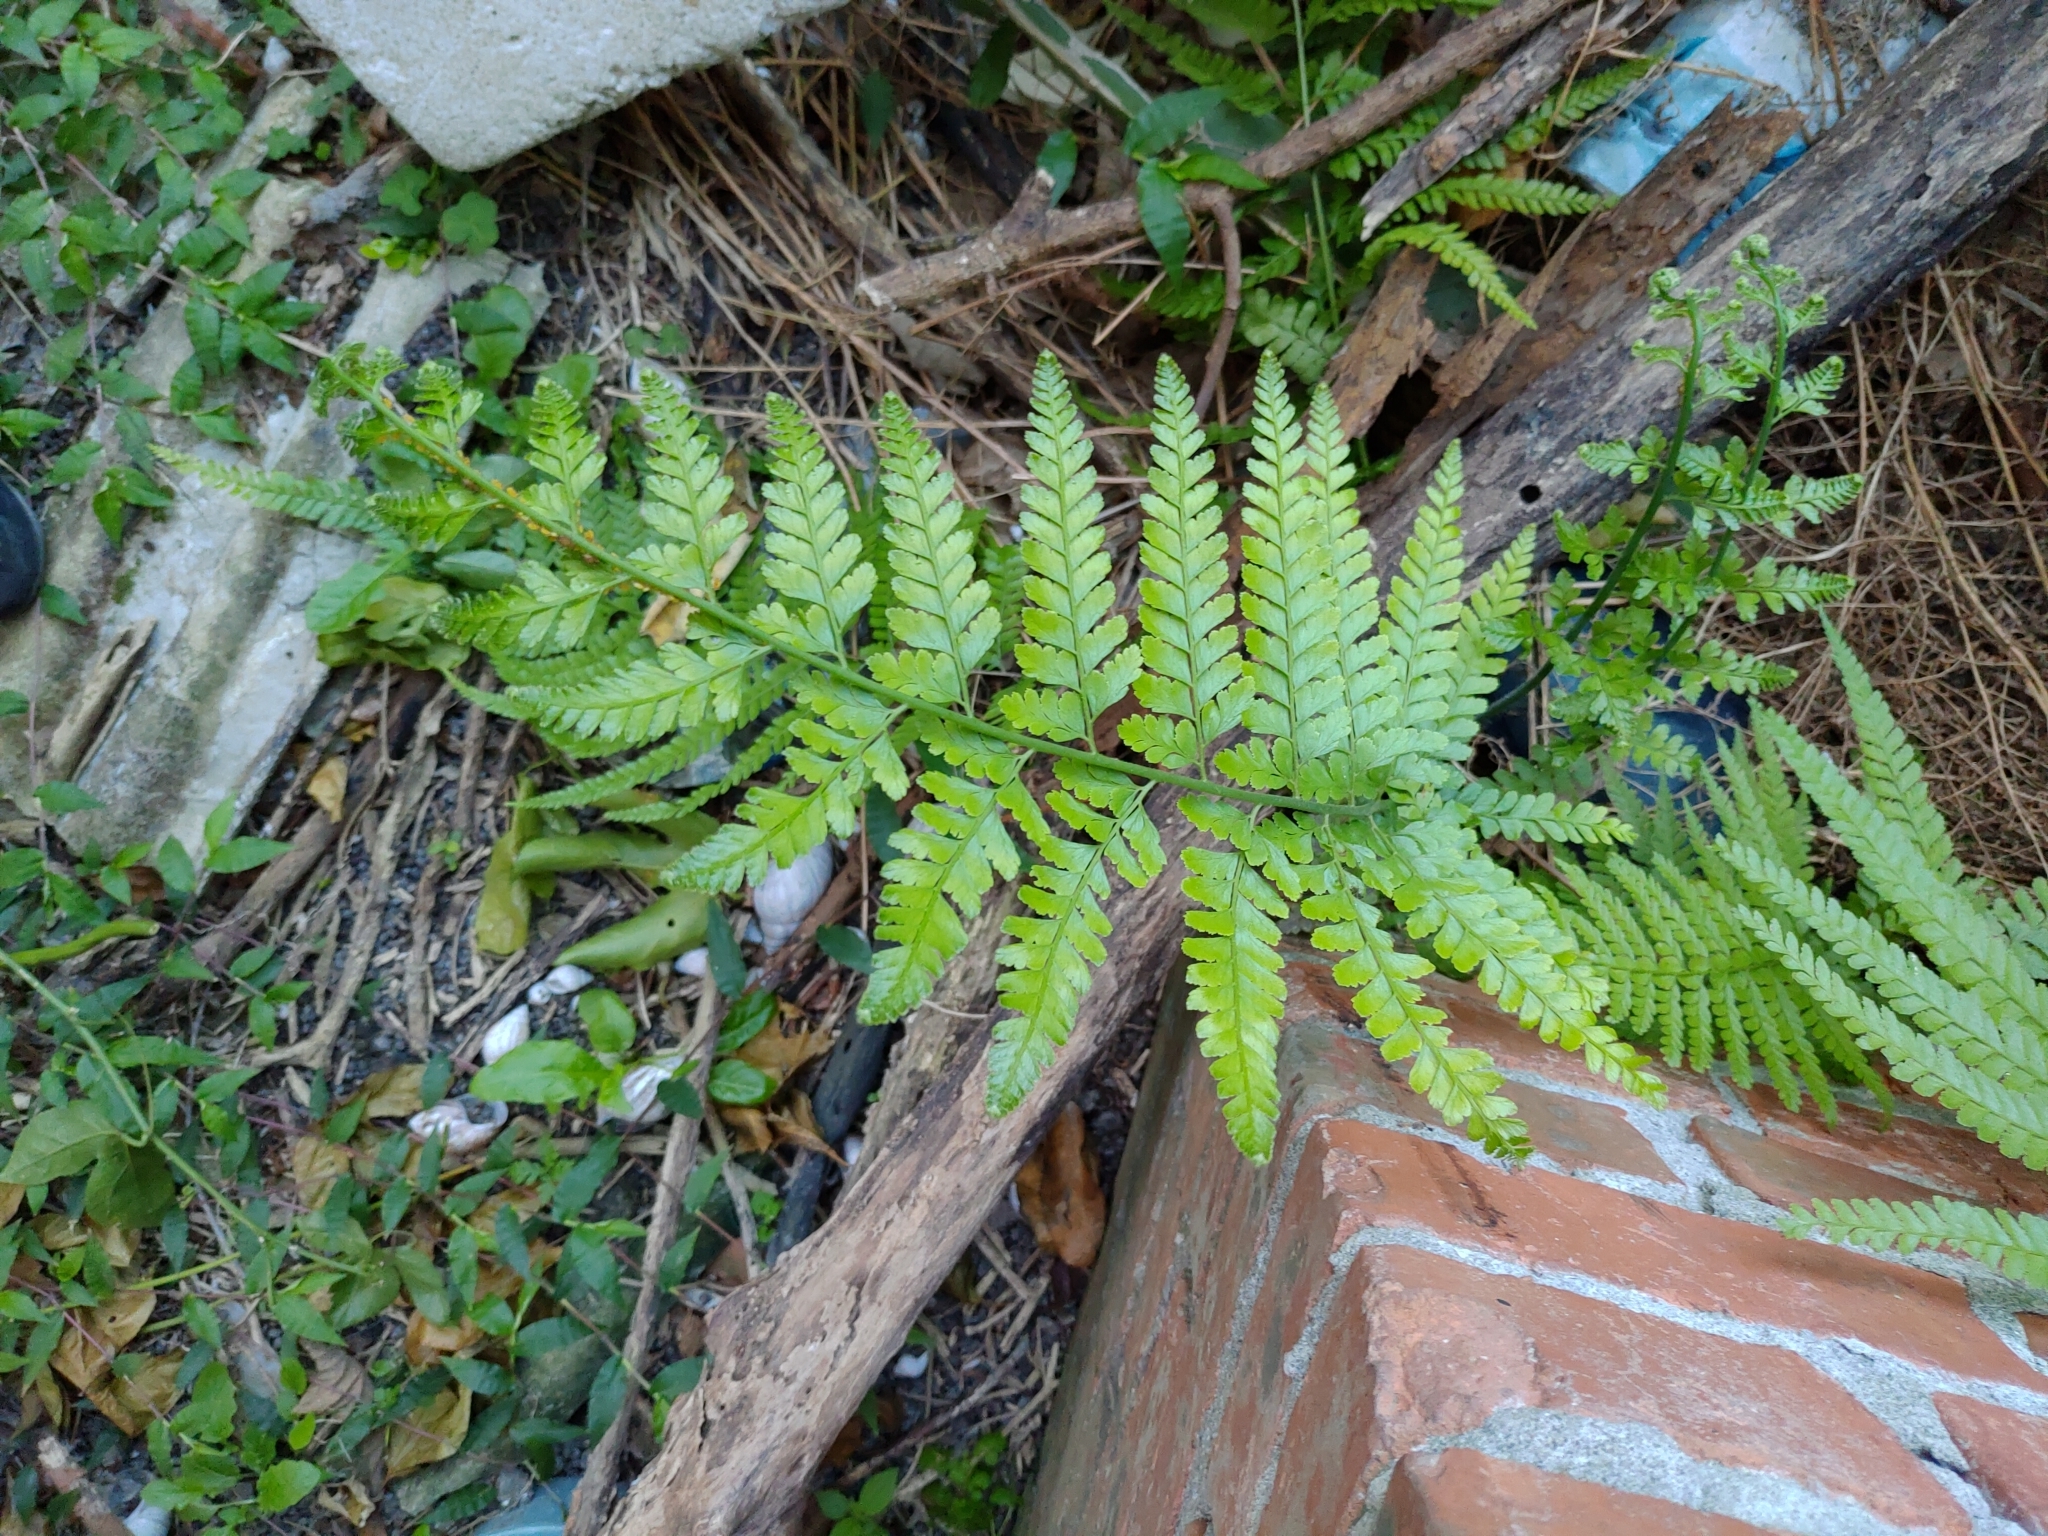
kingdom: Plantae
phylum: Tracheophyta
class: Polypodiopsida
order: Polypodiales
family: Dennstaedtiaceae
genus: Microlepia
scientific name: Microlepia strigosa
